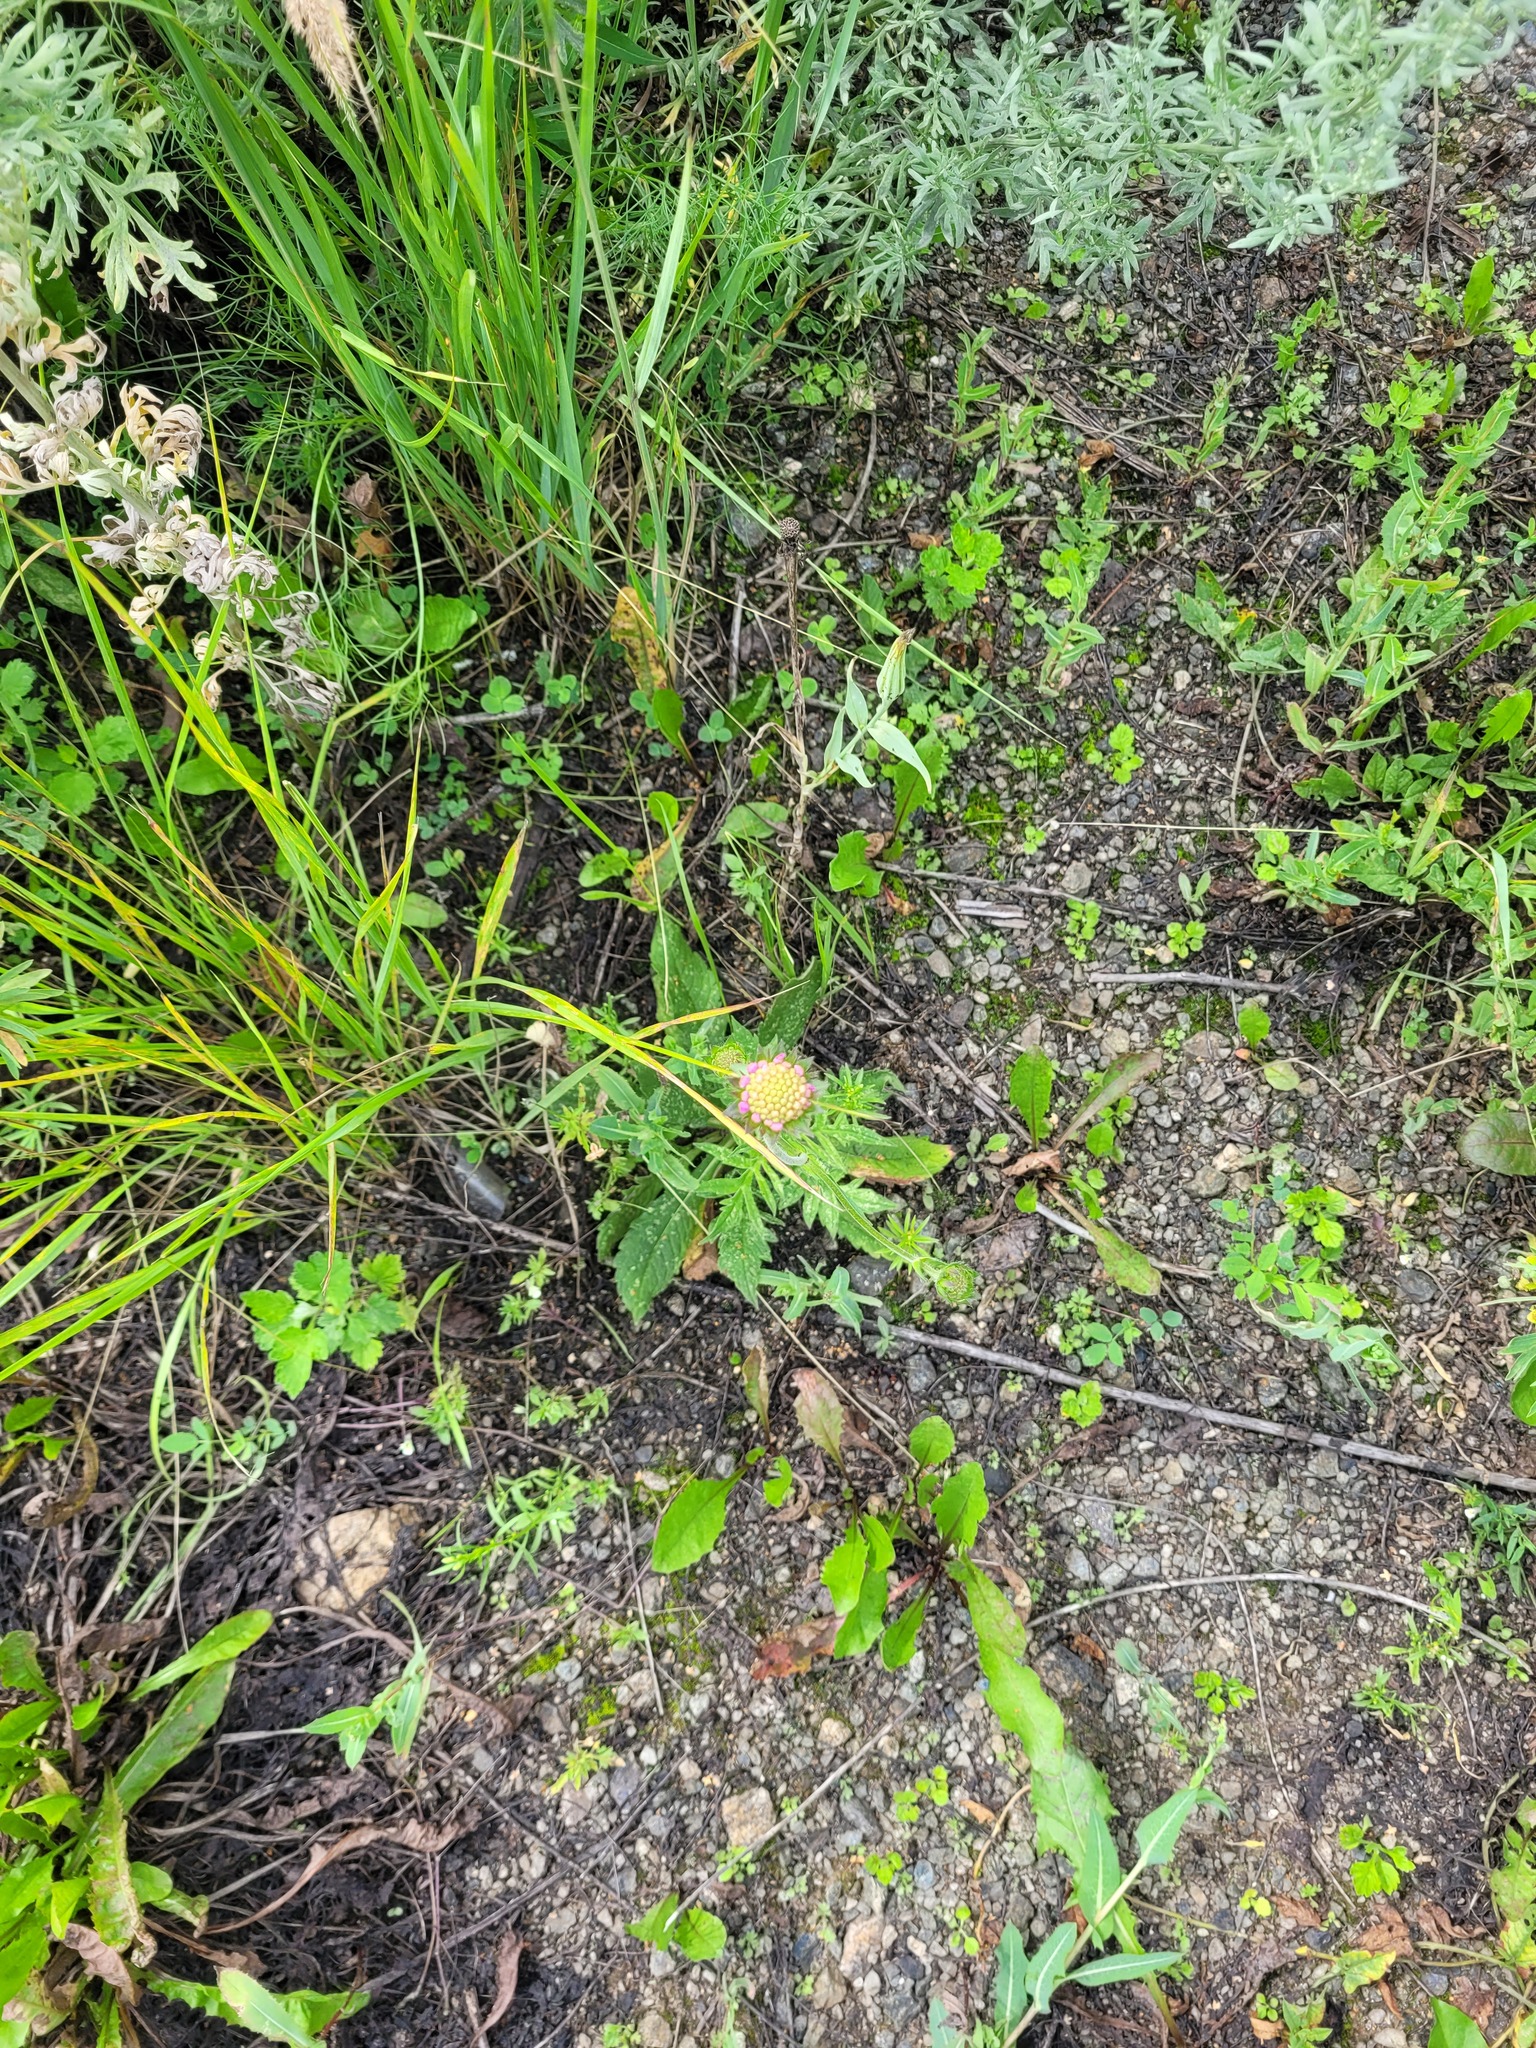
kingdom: Plantae
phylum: Tracheophyta
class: Magnoliopsida
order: Dipsacales
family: Caprifoliaceae
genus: Knautia
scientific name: Knautia arvensis
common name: Field scabiosa
